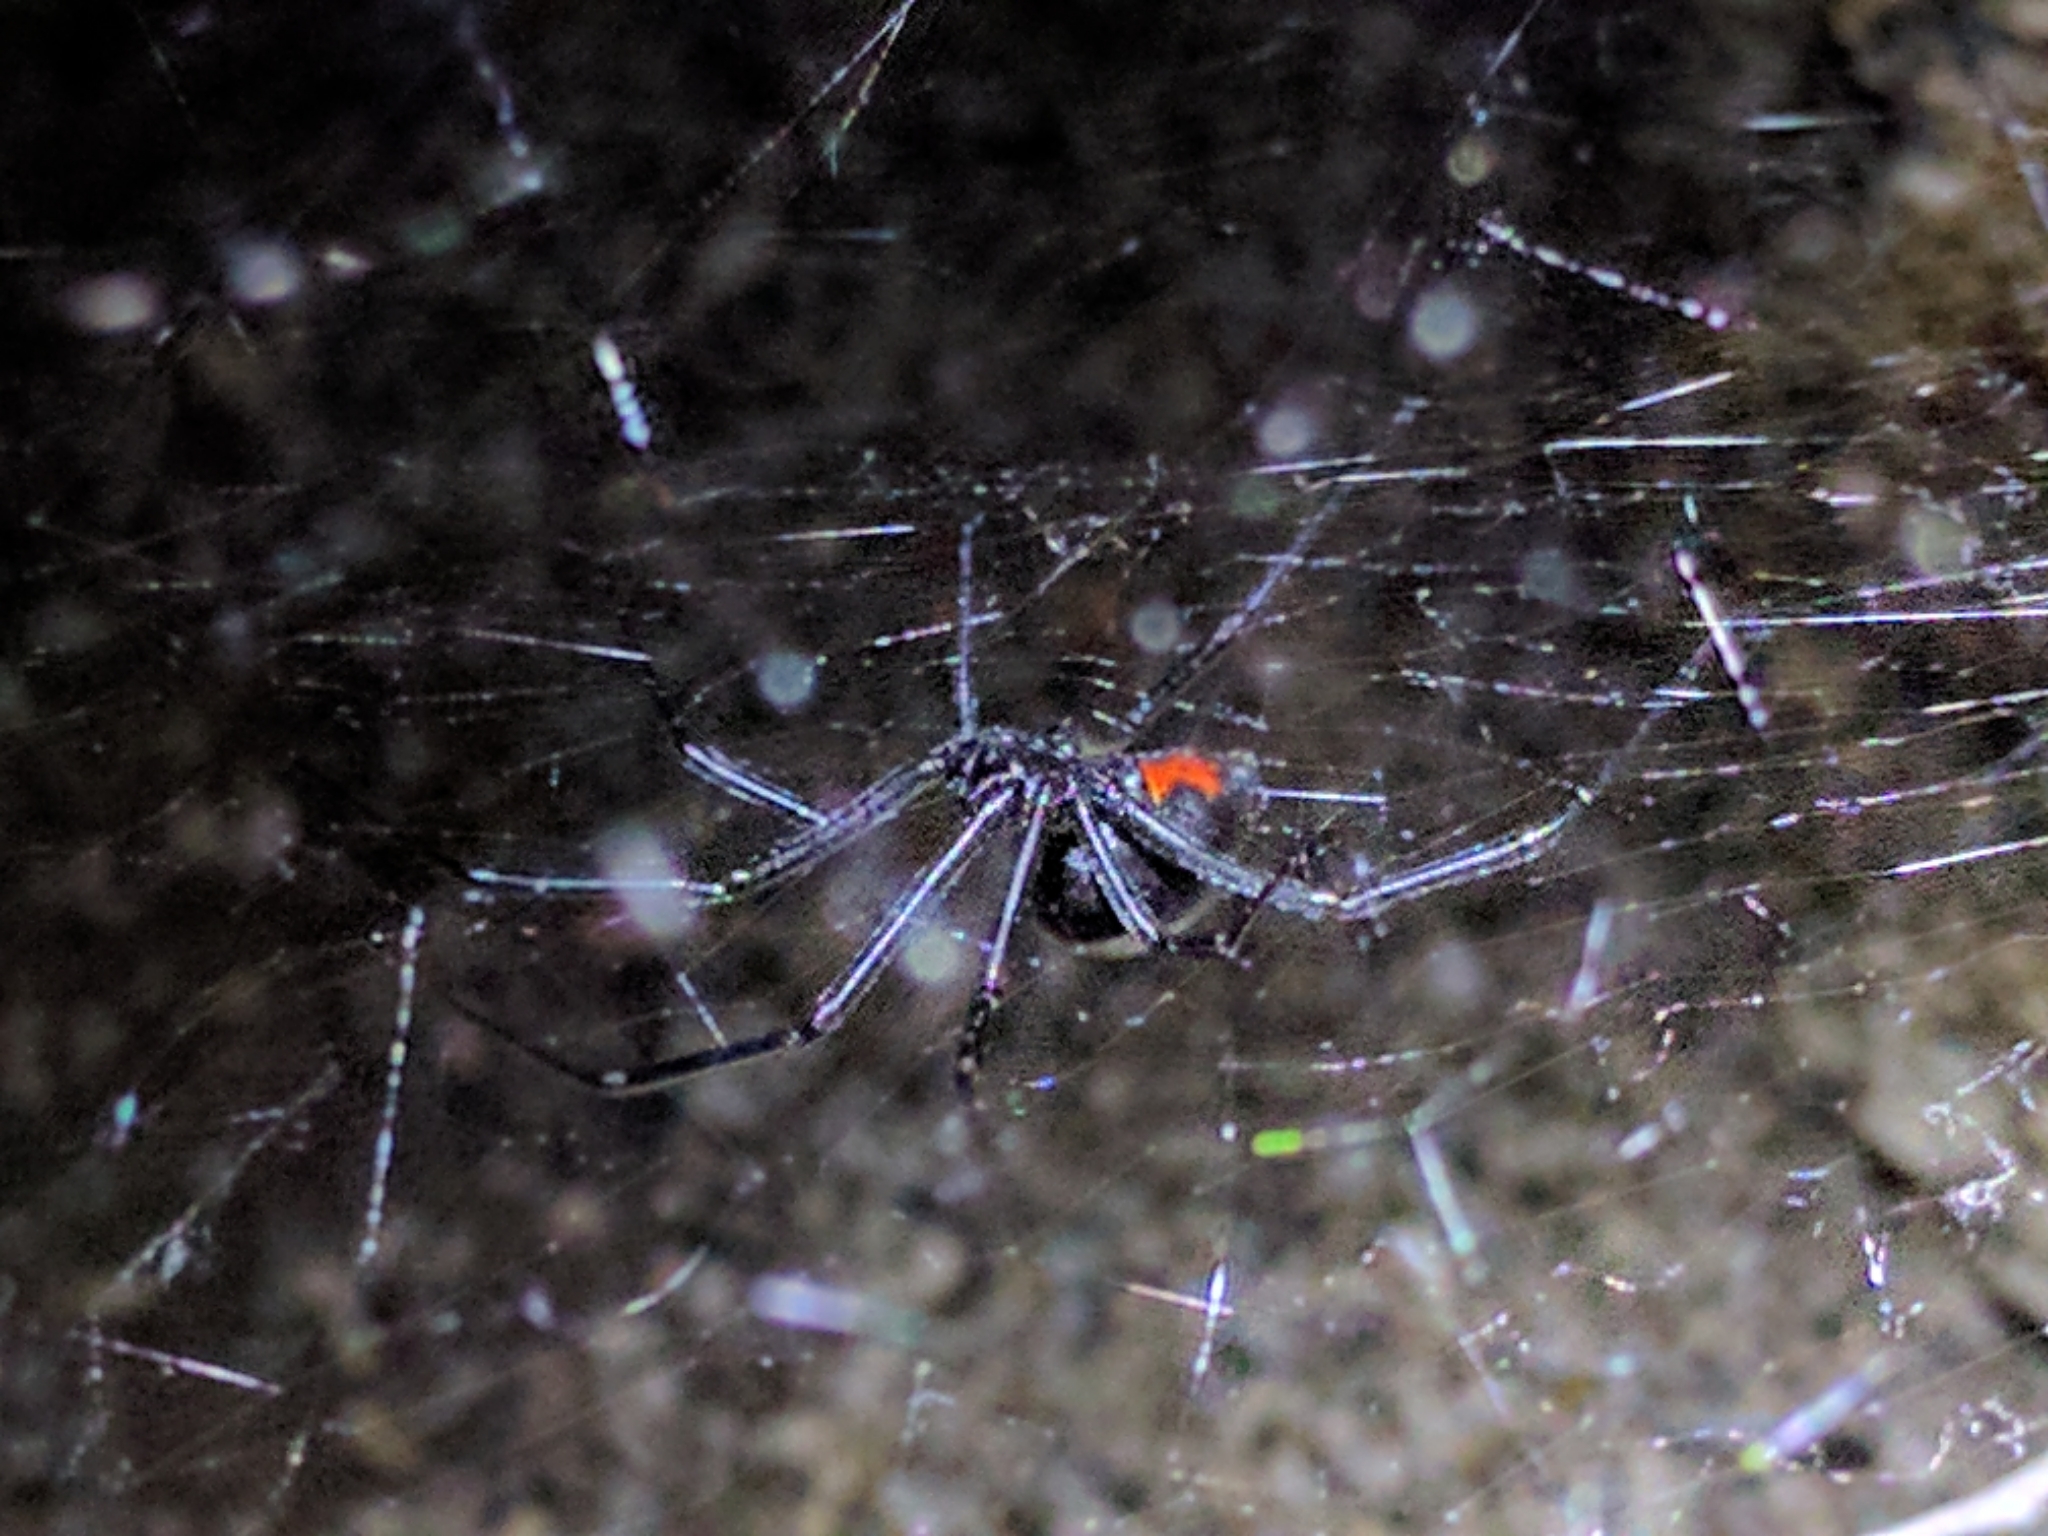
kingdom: Animalia
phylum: Arthropoda
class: Arachnida
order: Araneae
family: Theridiidae
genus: Latrodectus
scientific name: Latrodectus hesperus
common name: Western black widow
